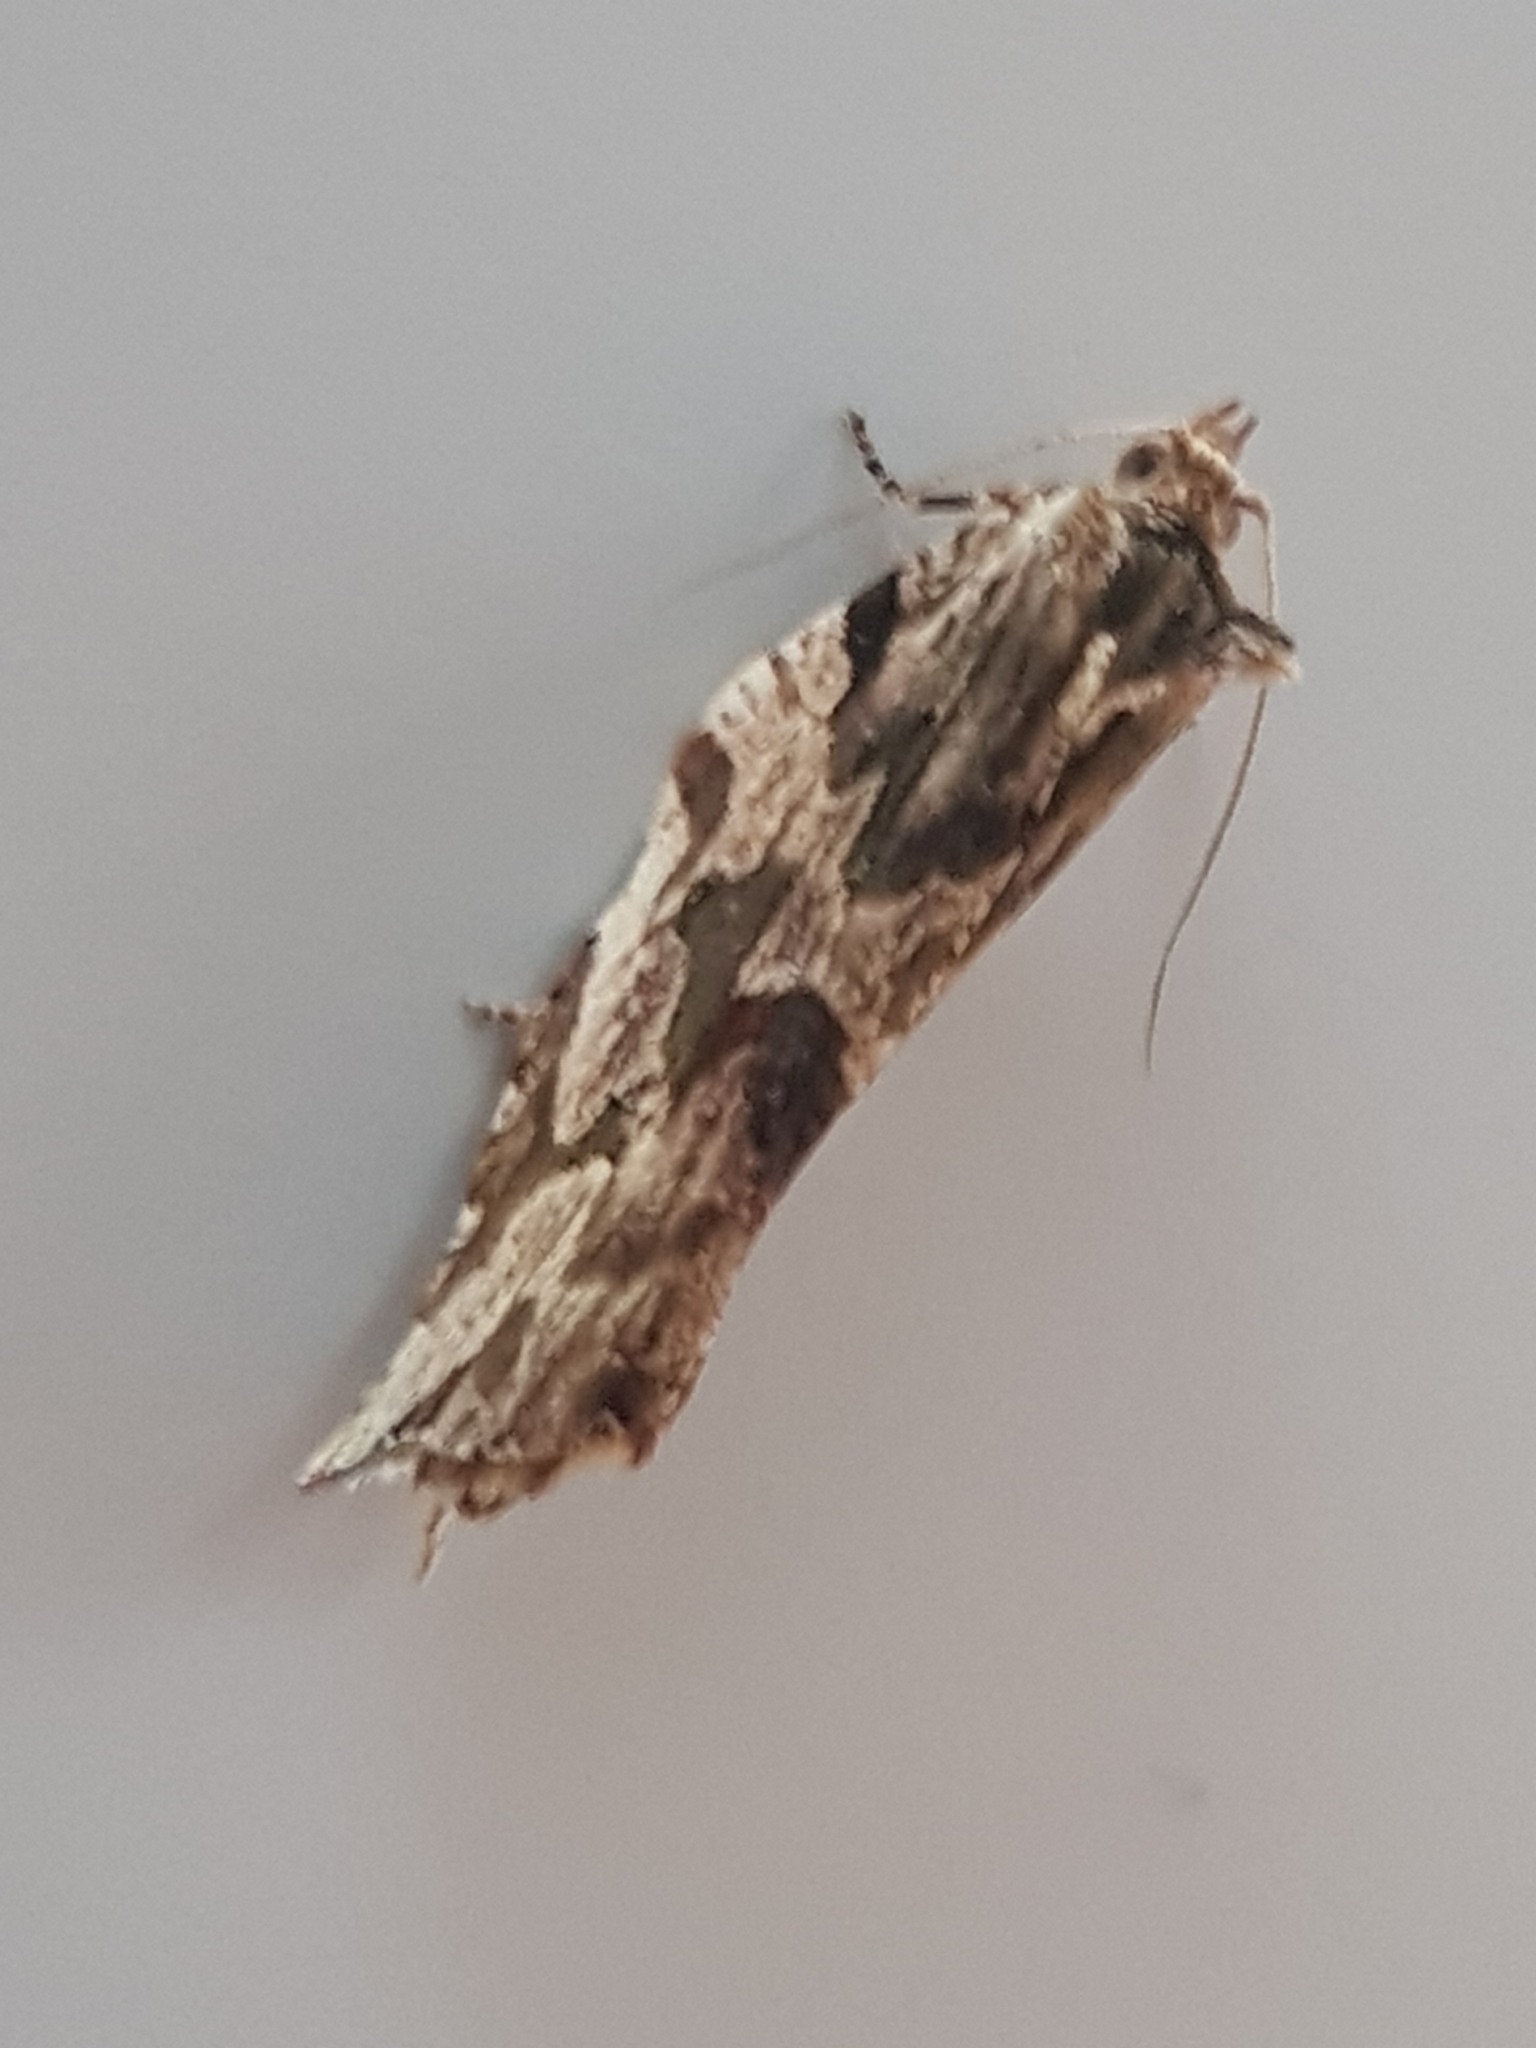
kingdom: Animalia
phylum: Arthropoda
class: Insecta
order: Lepidoptera
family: Tortricidae
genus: Epalxiphora
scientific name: Epalxiphora axenana
